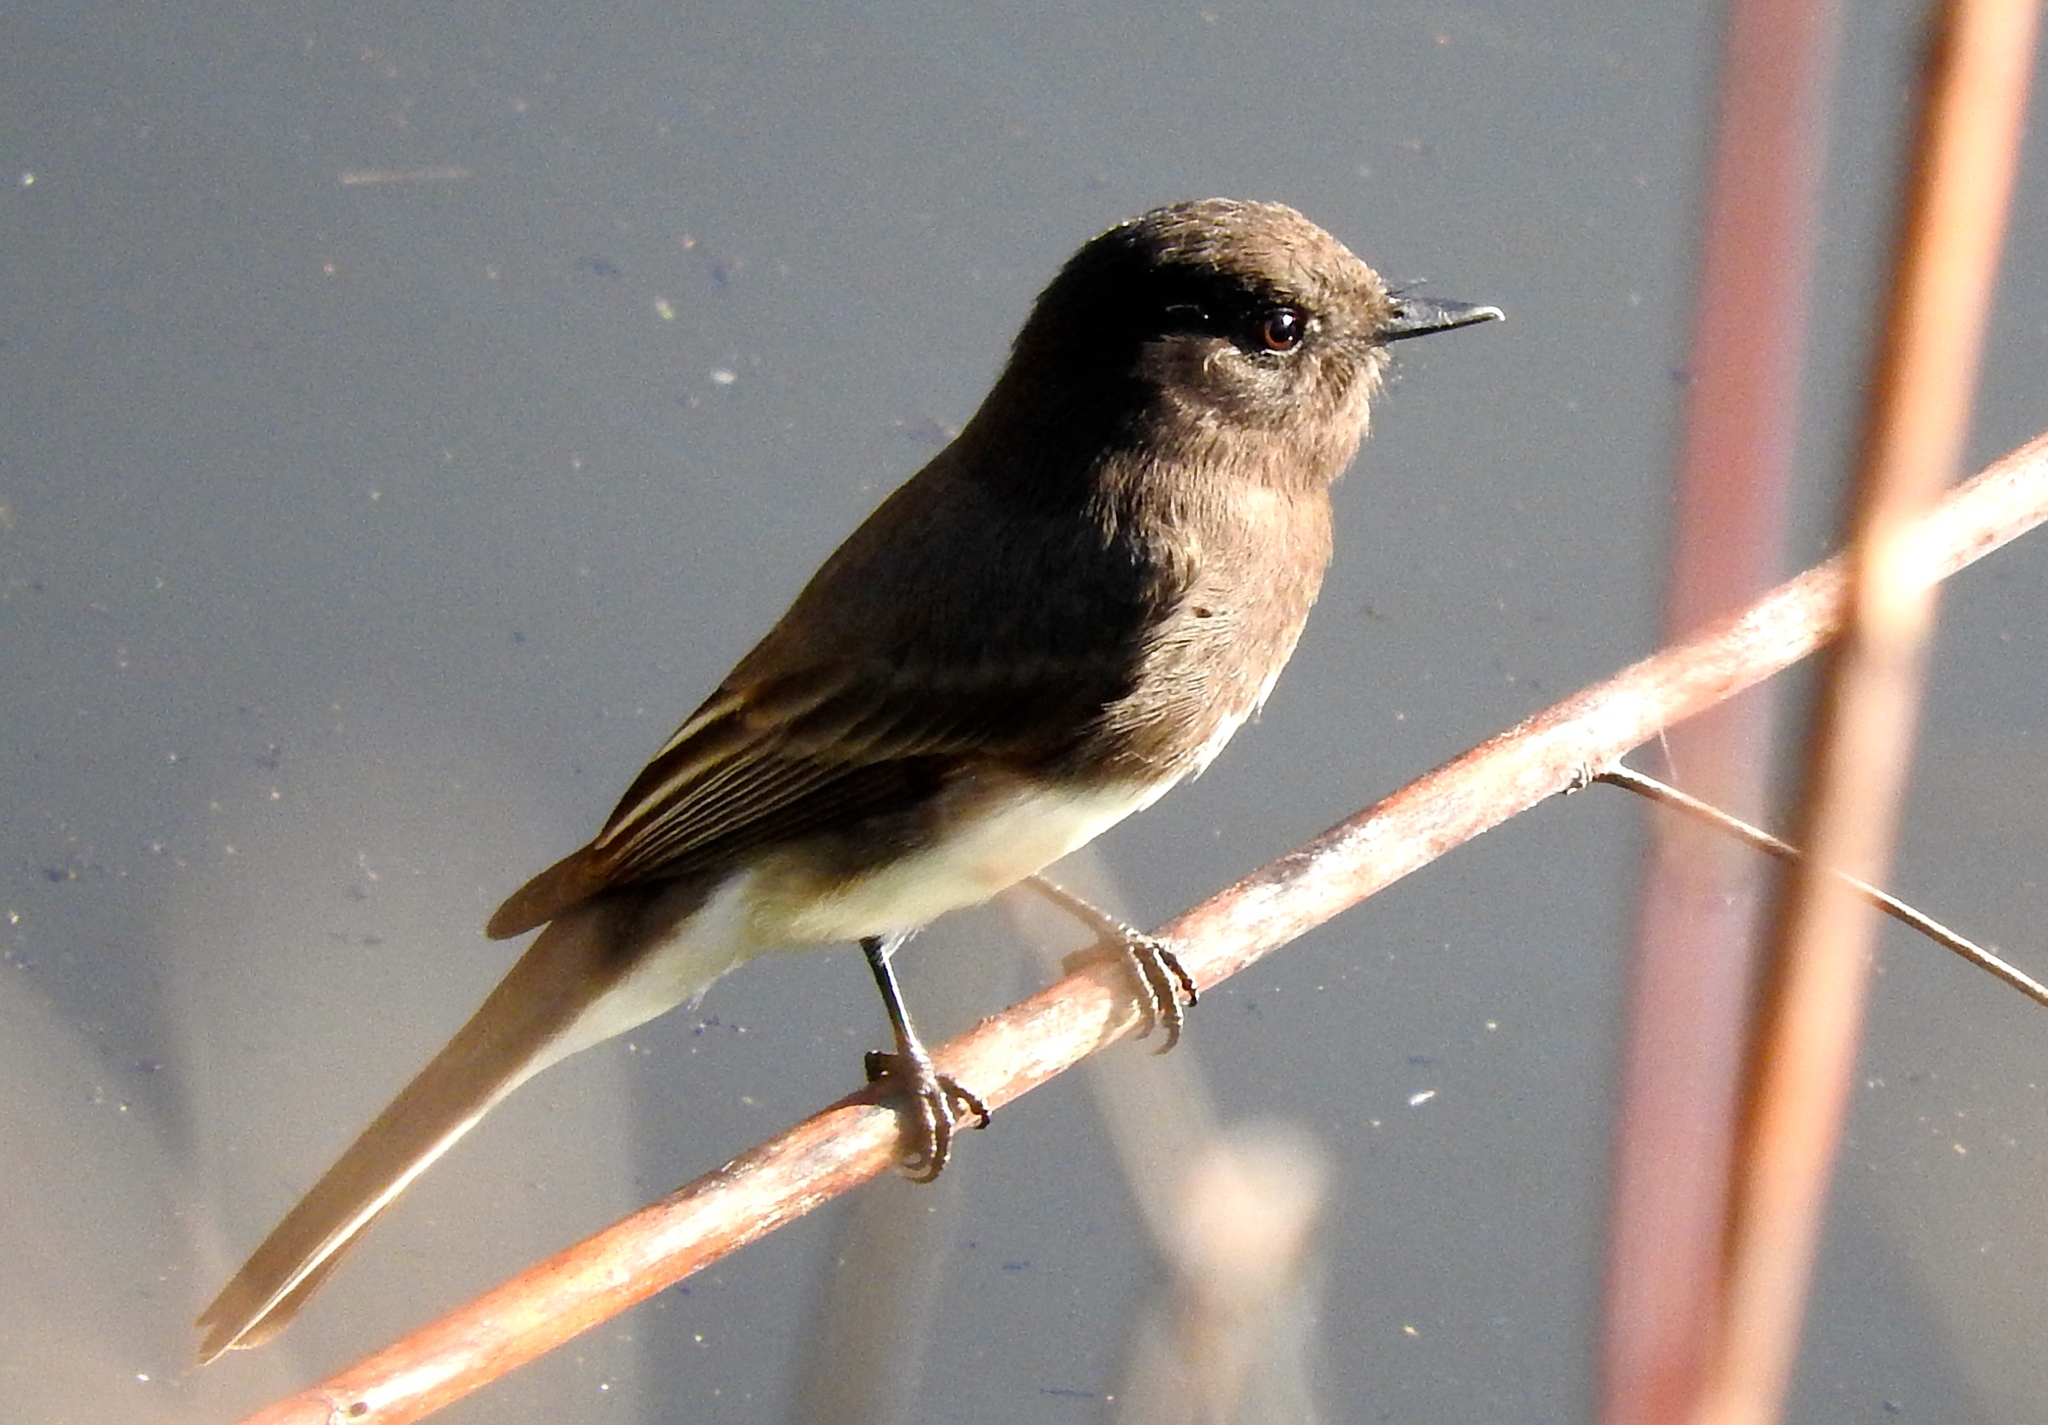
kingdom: Animalia
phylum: Chordata
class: Aves
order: Passeriformes
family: Tyrannidae
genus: Sayornis
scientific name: Sayornis nigricans
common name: Black phoebe
